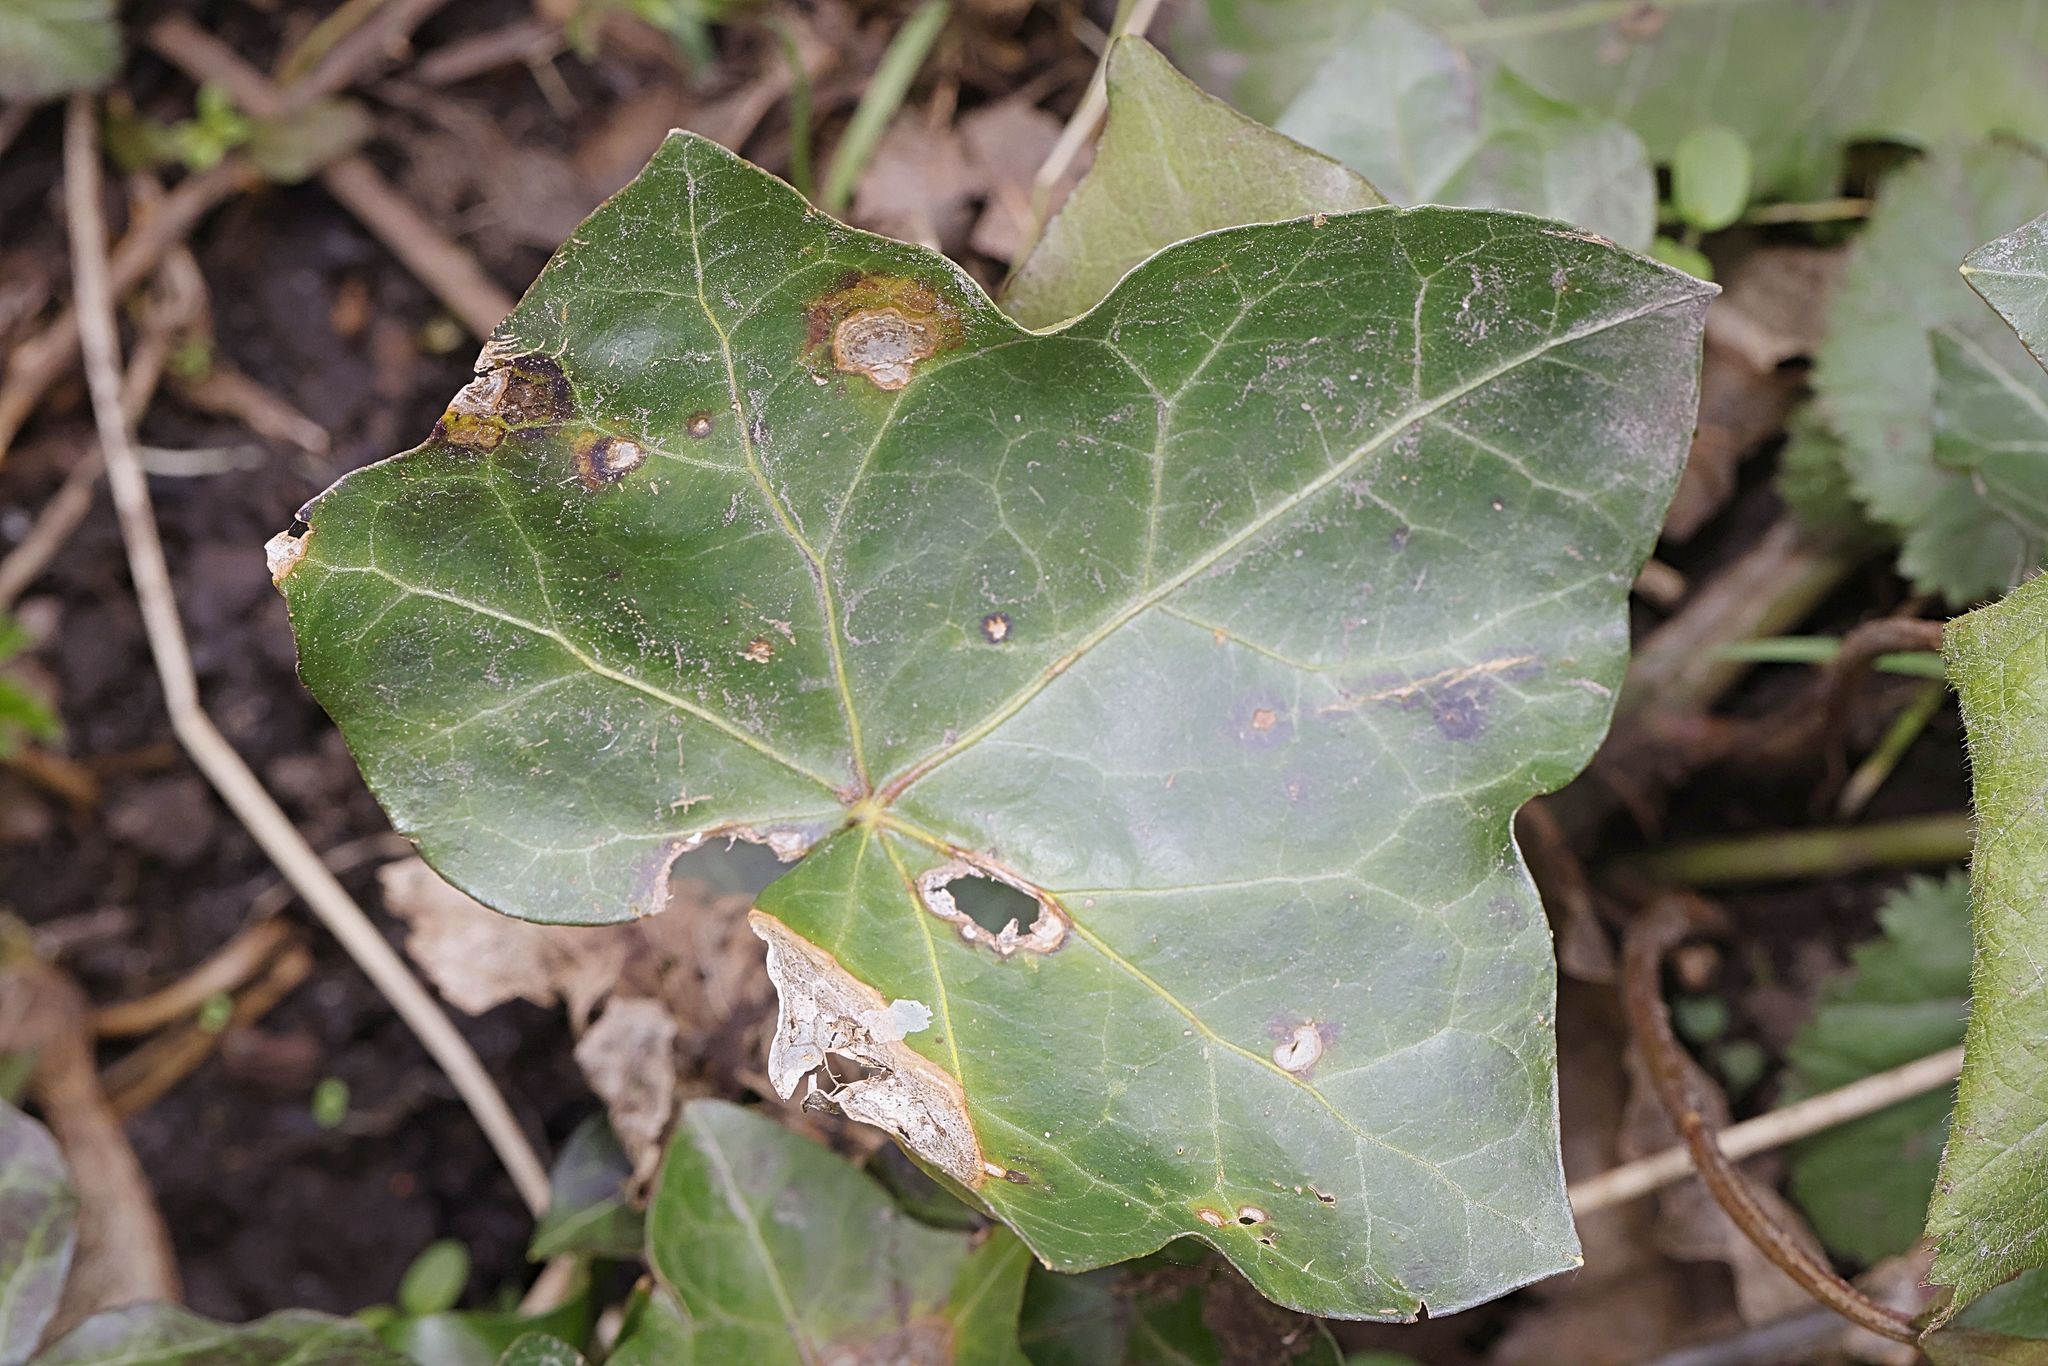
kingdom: Fungi
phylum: Ascomycota
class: Dothideomycetes
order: Pleosporales
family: Didymellaceae
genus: Boeremia
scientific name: Boeremia hedericola
